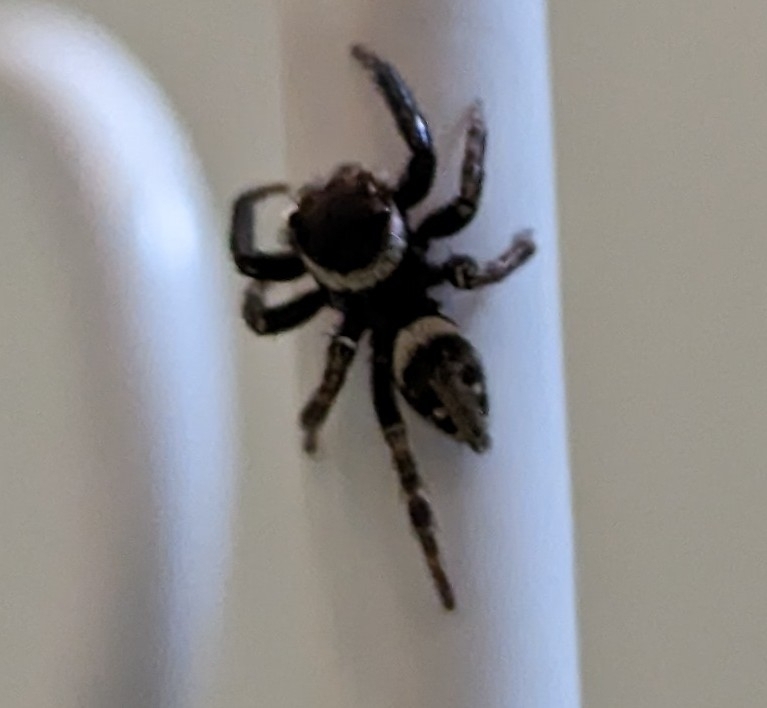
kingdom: Animalia
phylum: Arthropoda
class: Arachnida
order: Araneae
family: Salticidae
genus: Hasarius
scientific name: Hasarius adansoni
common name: Jumping spider
